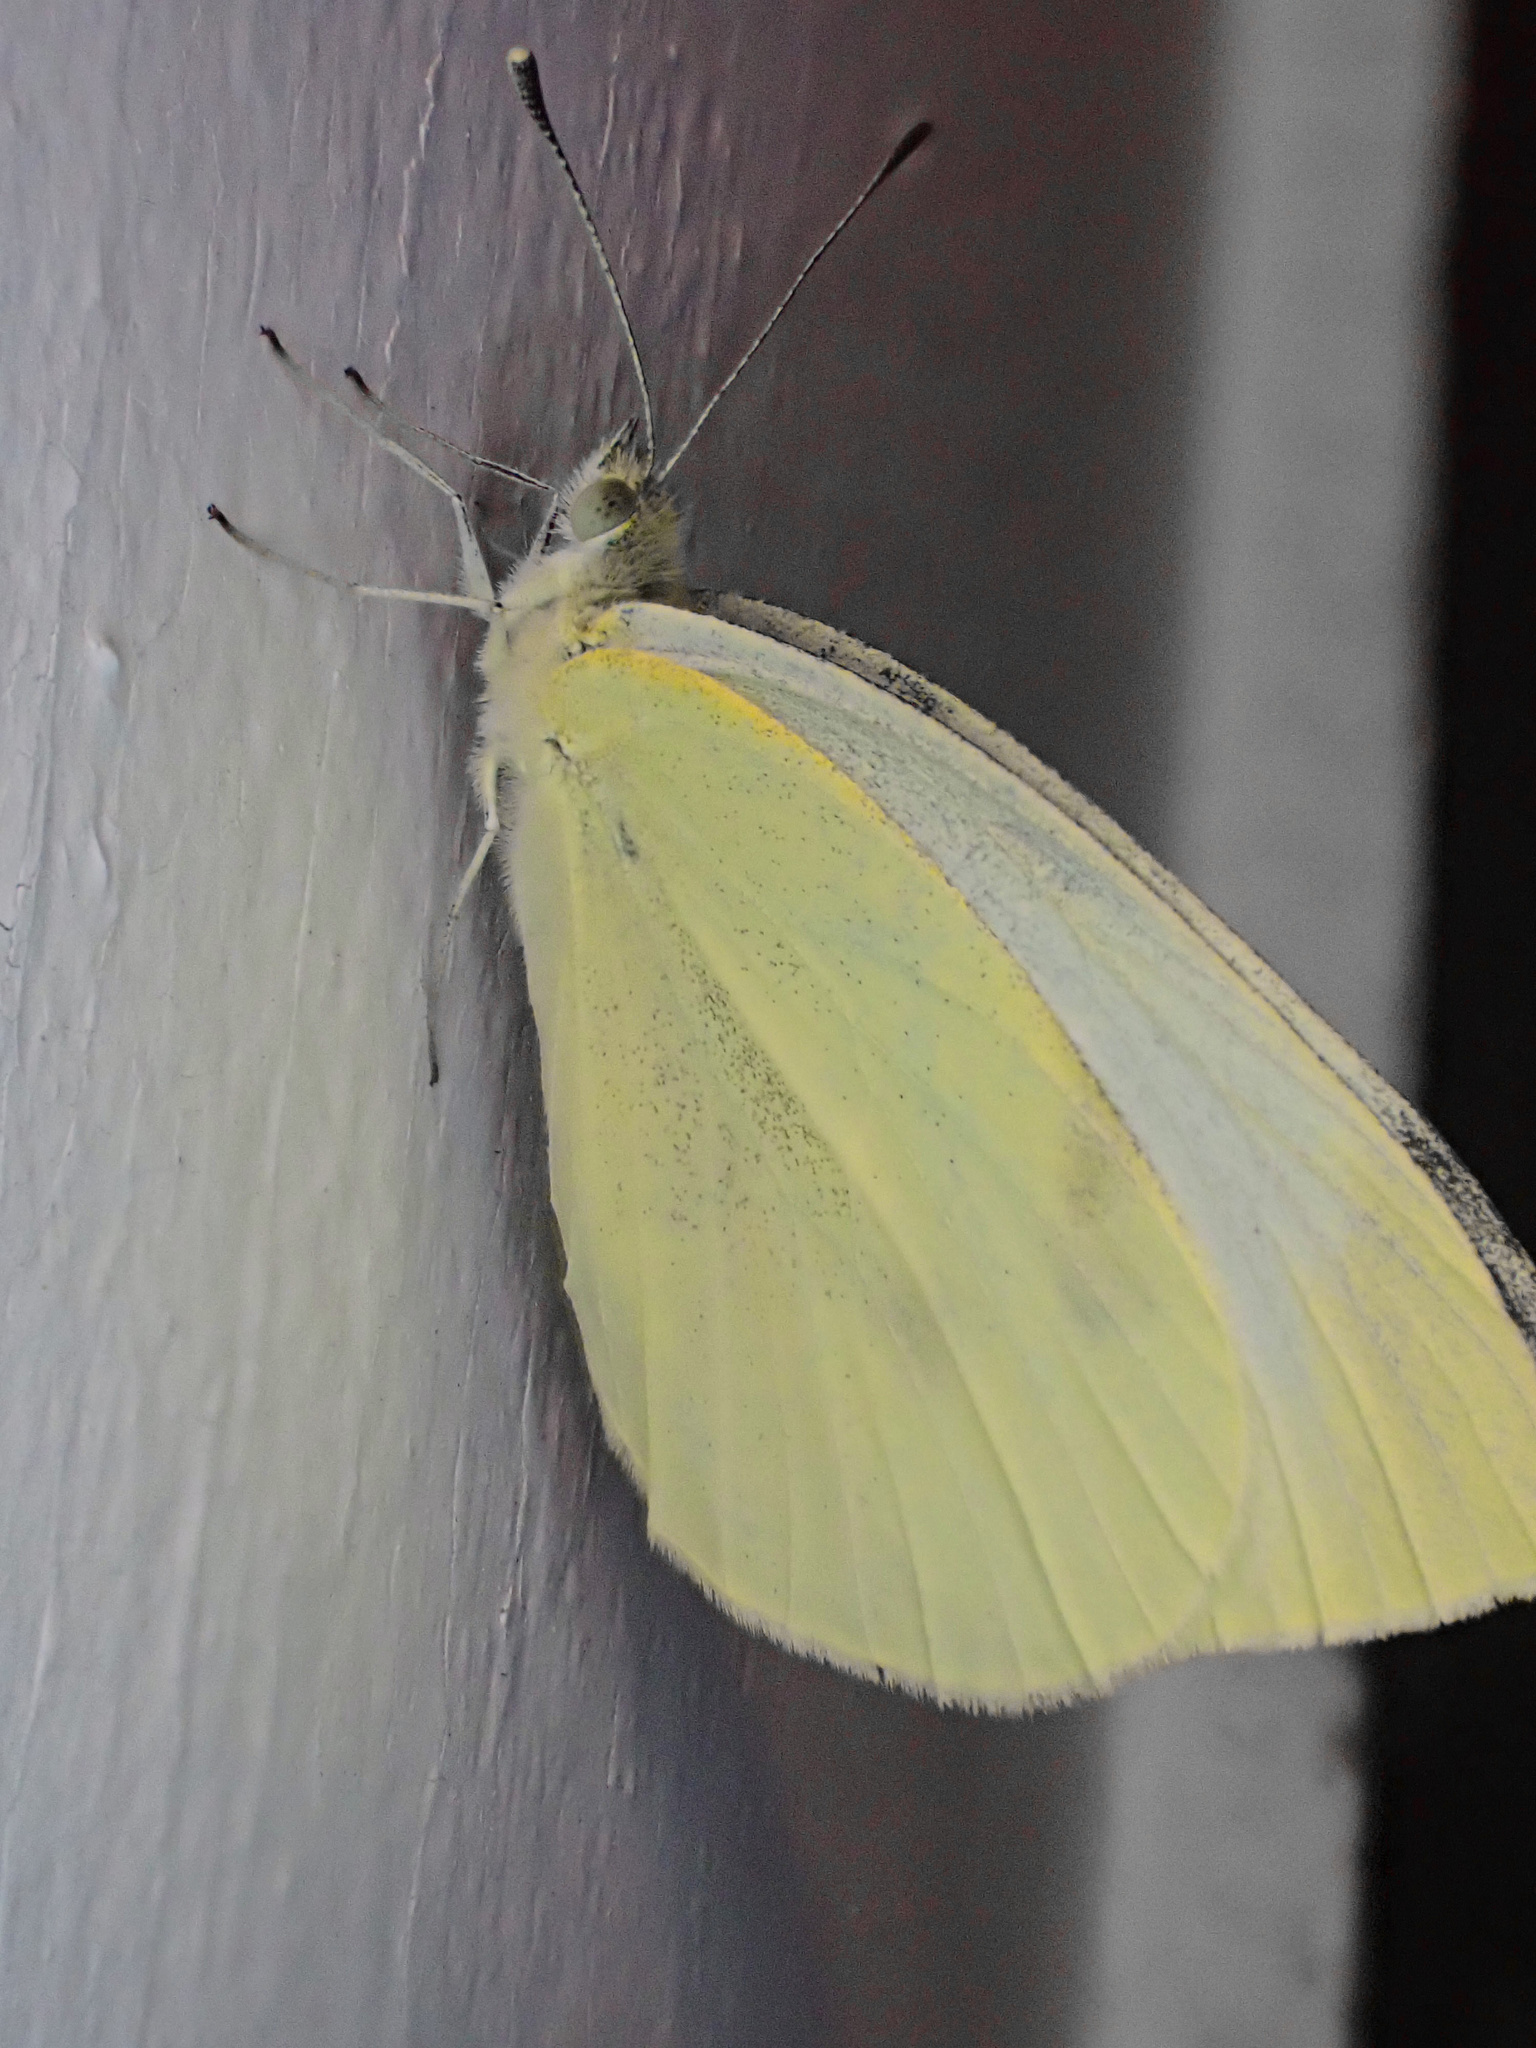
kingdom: Animalia
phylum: Arthropoda
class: Insecta
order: Lepidoptera
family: Pieridae
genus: Pieris
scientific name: Pieris rapae
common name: Small white
